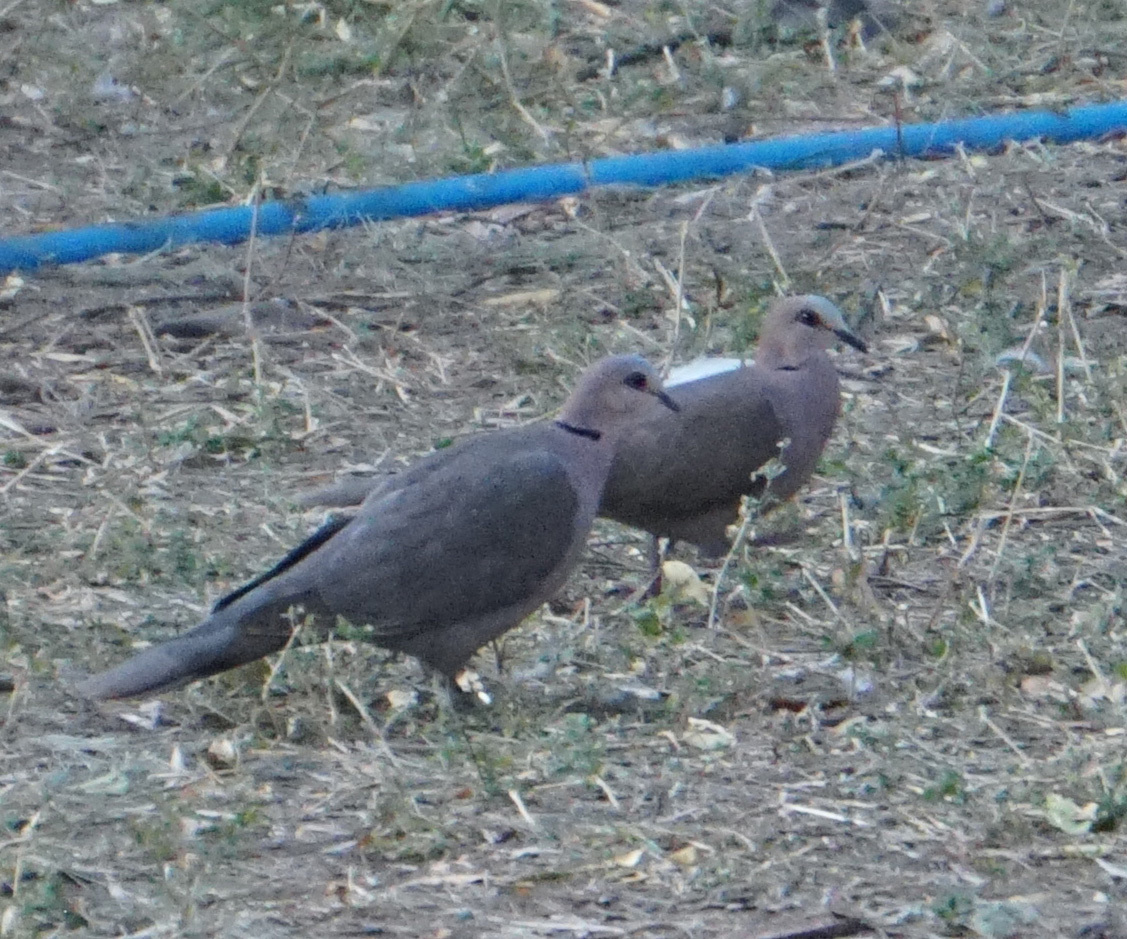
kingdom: Animalia
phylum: Chordata
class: Aves
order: Columbiformes
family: Columbidae
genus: Streptopelia
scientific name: Streptopelia semitorquata
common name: Red-eyed dove
